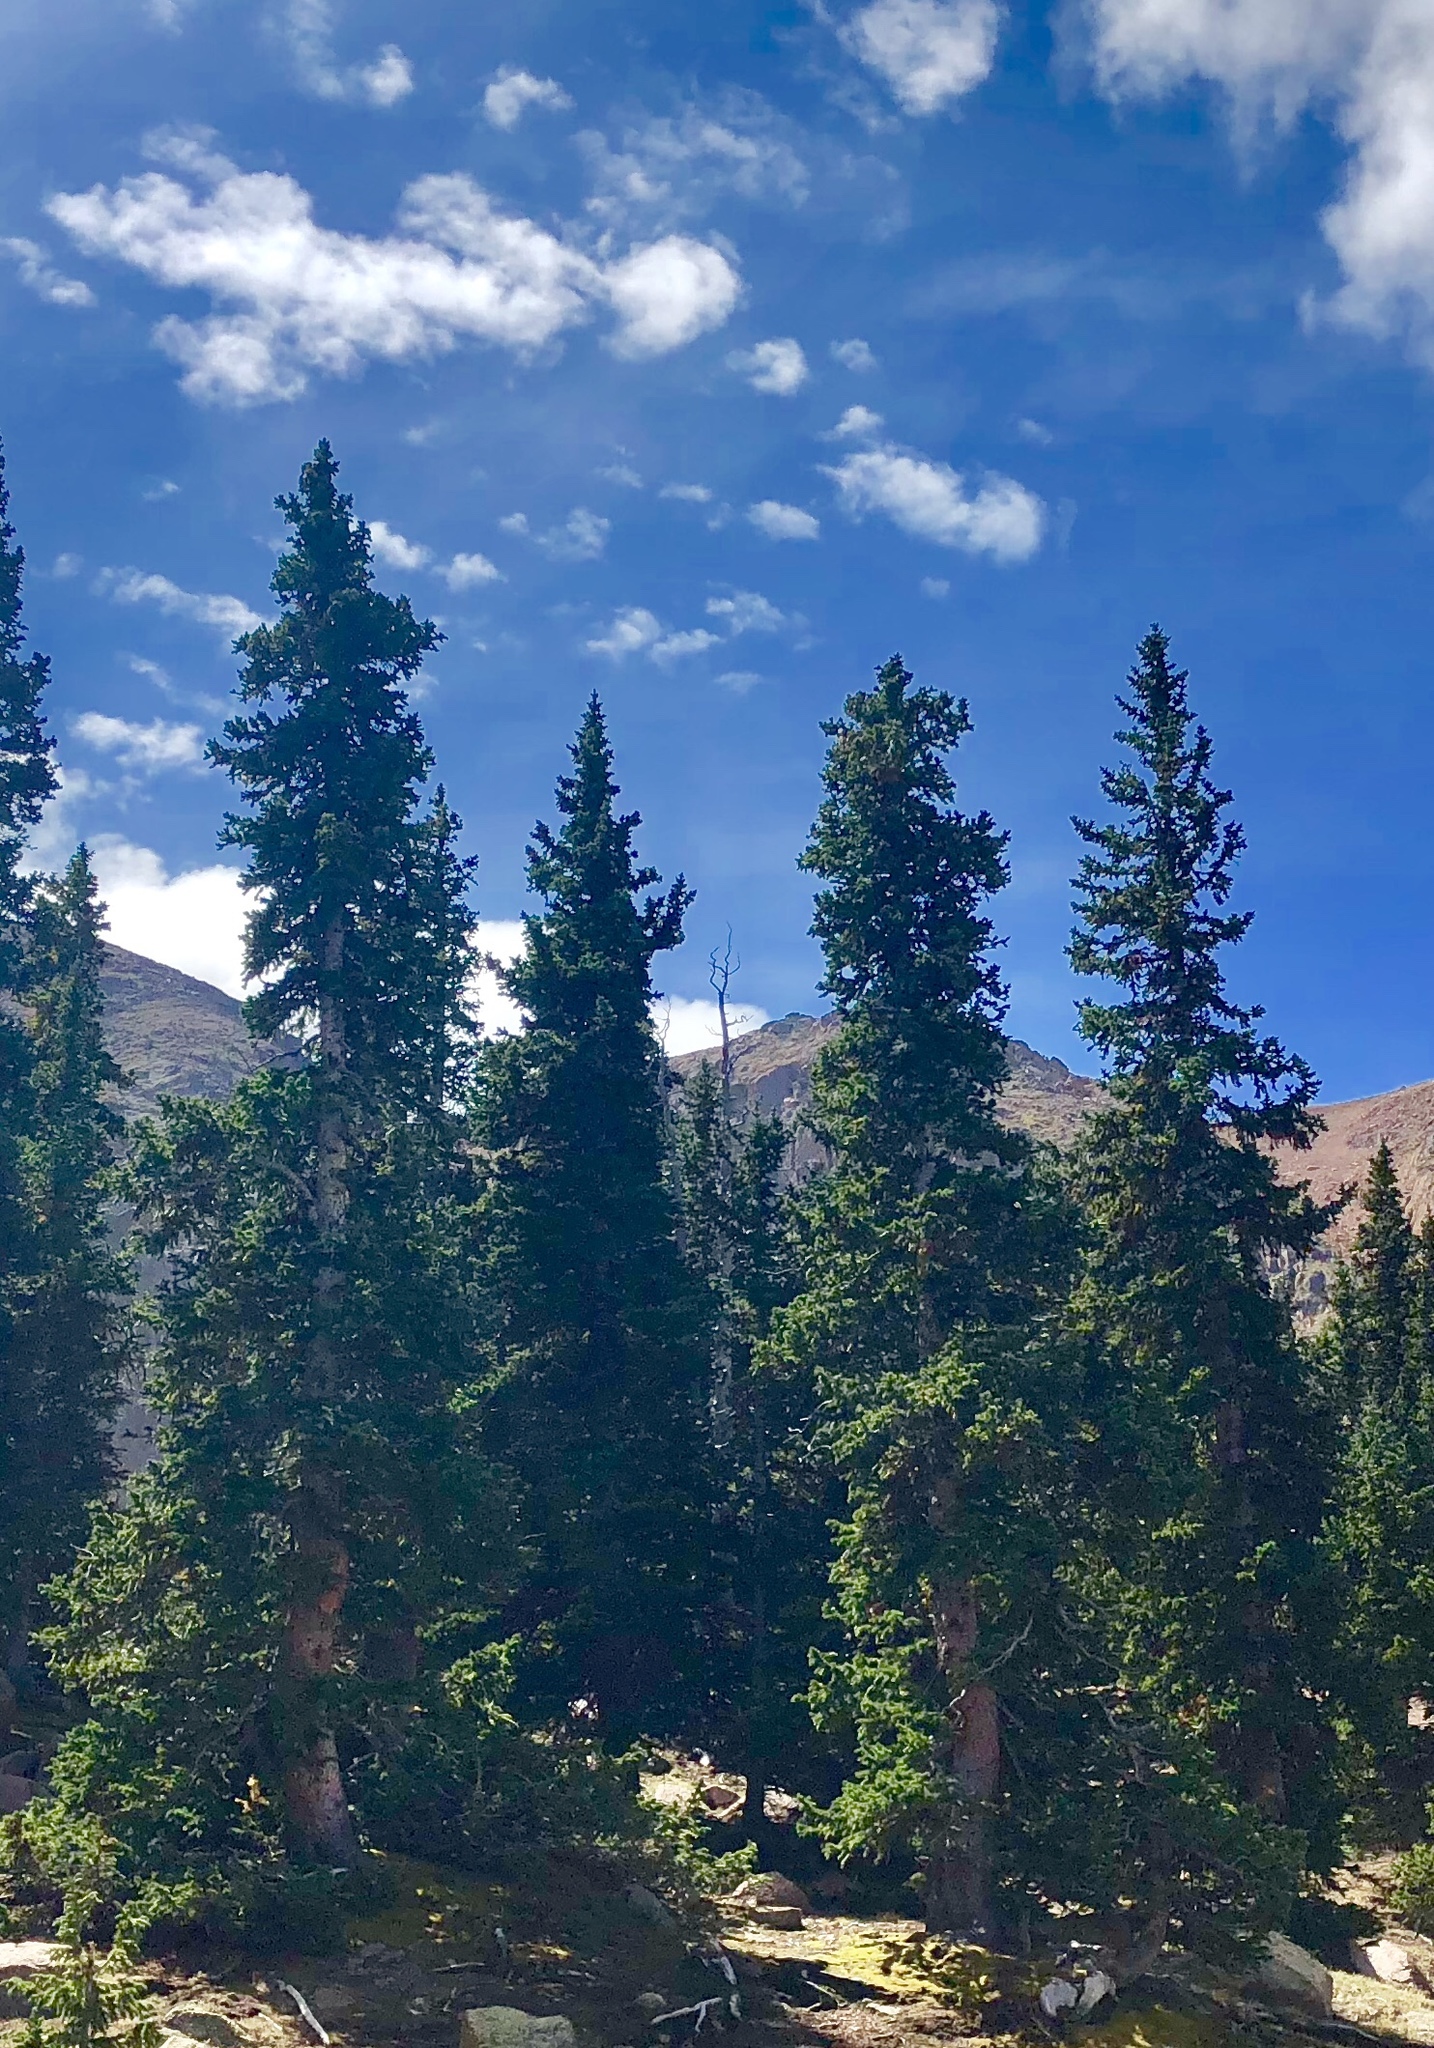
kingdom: Plantae
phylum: Tracheophyta
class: Pinopsida
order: Pinales
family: Pinaceae
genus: Picea
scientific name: Picea engelmannii
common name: Engelmann spruce
